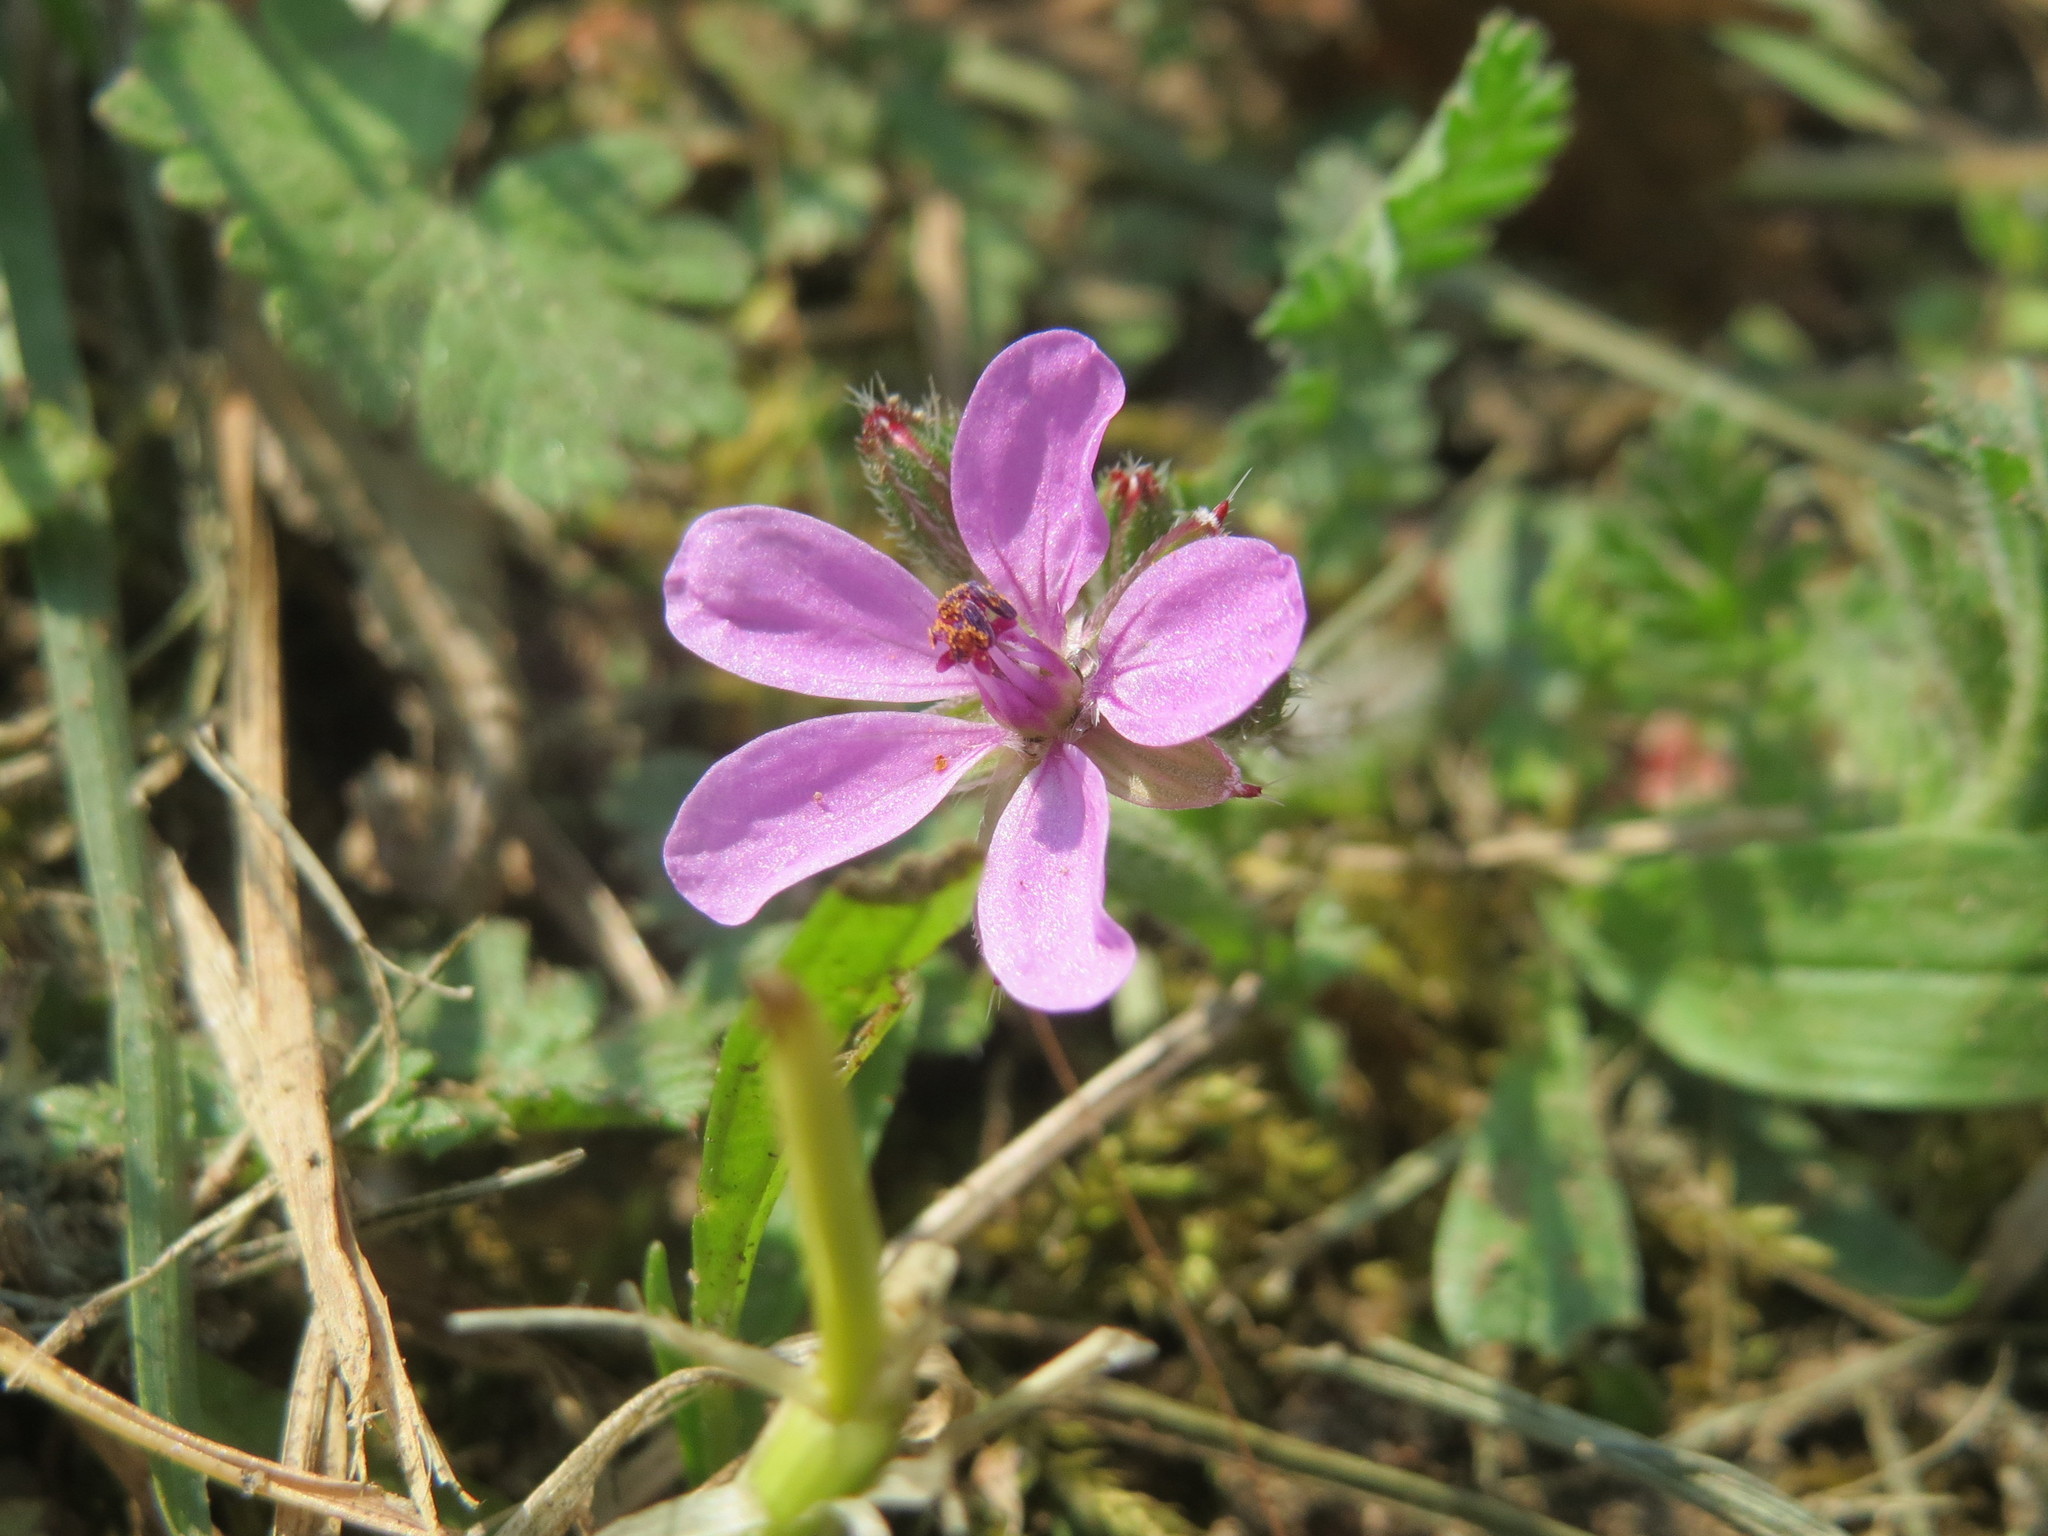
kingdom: Plantae
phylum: Tracheophyta
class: Magnoliopsida
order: Geraniales
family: Geraniaceae
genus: Erodium
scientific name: Erodium cicutarium
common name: Common stork's-bill
